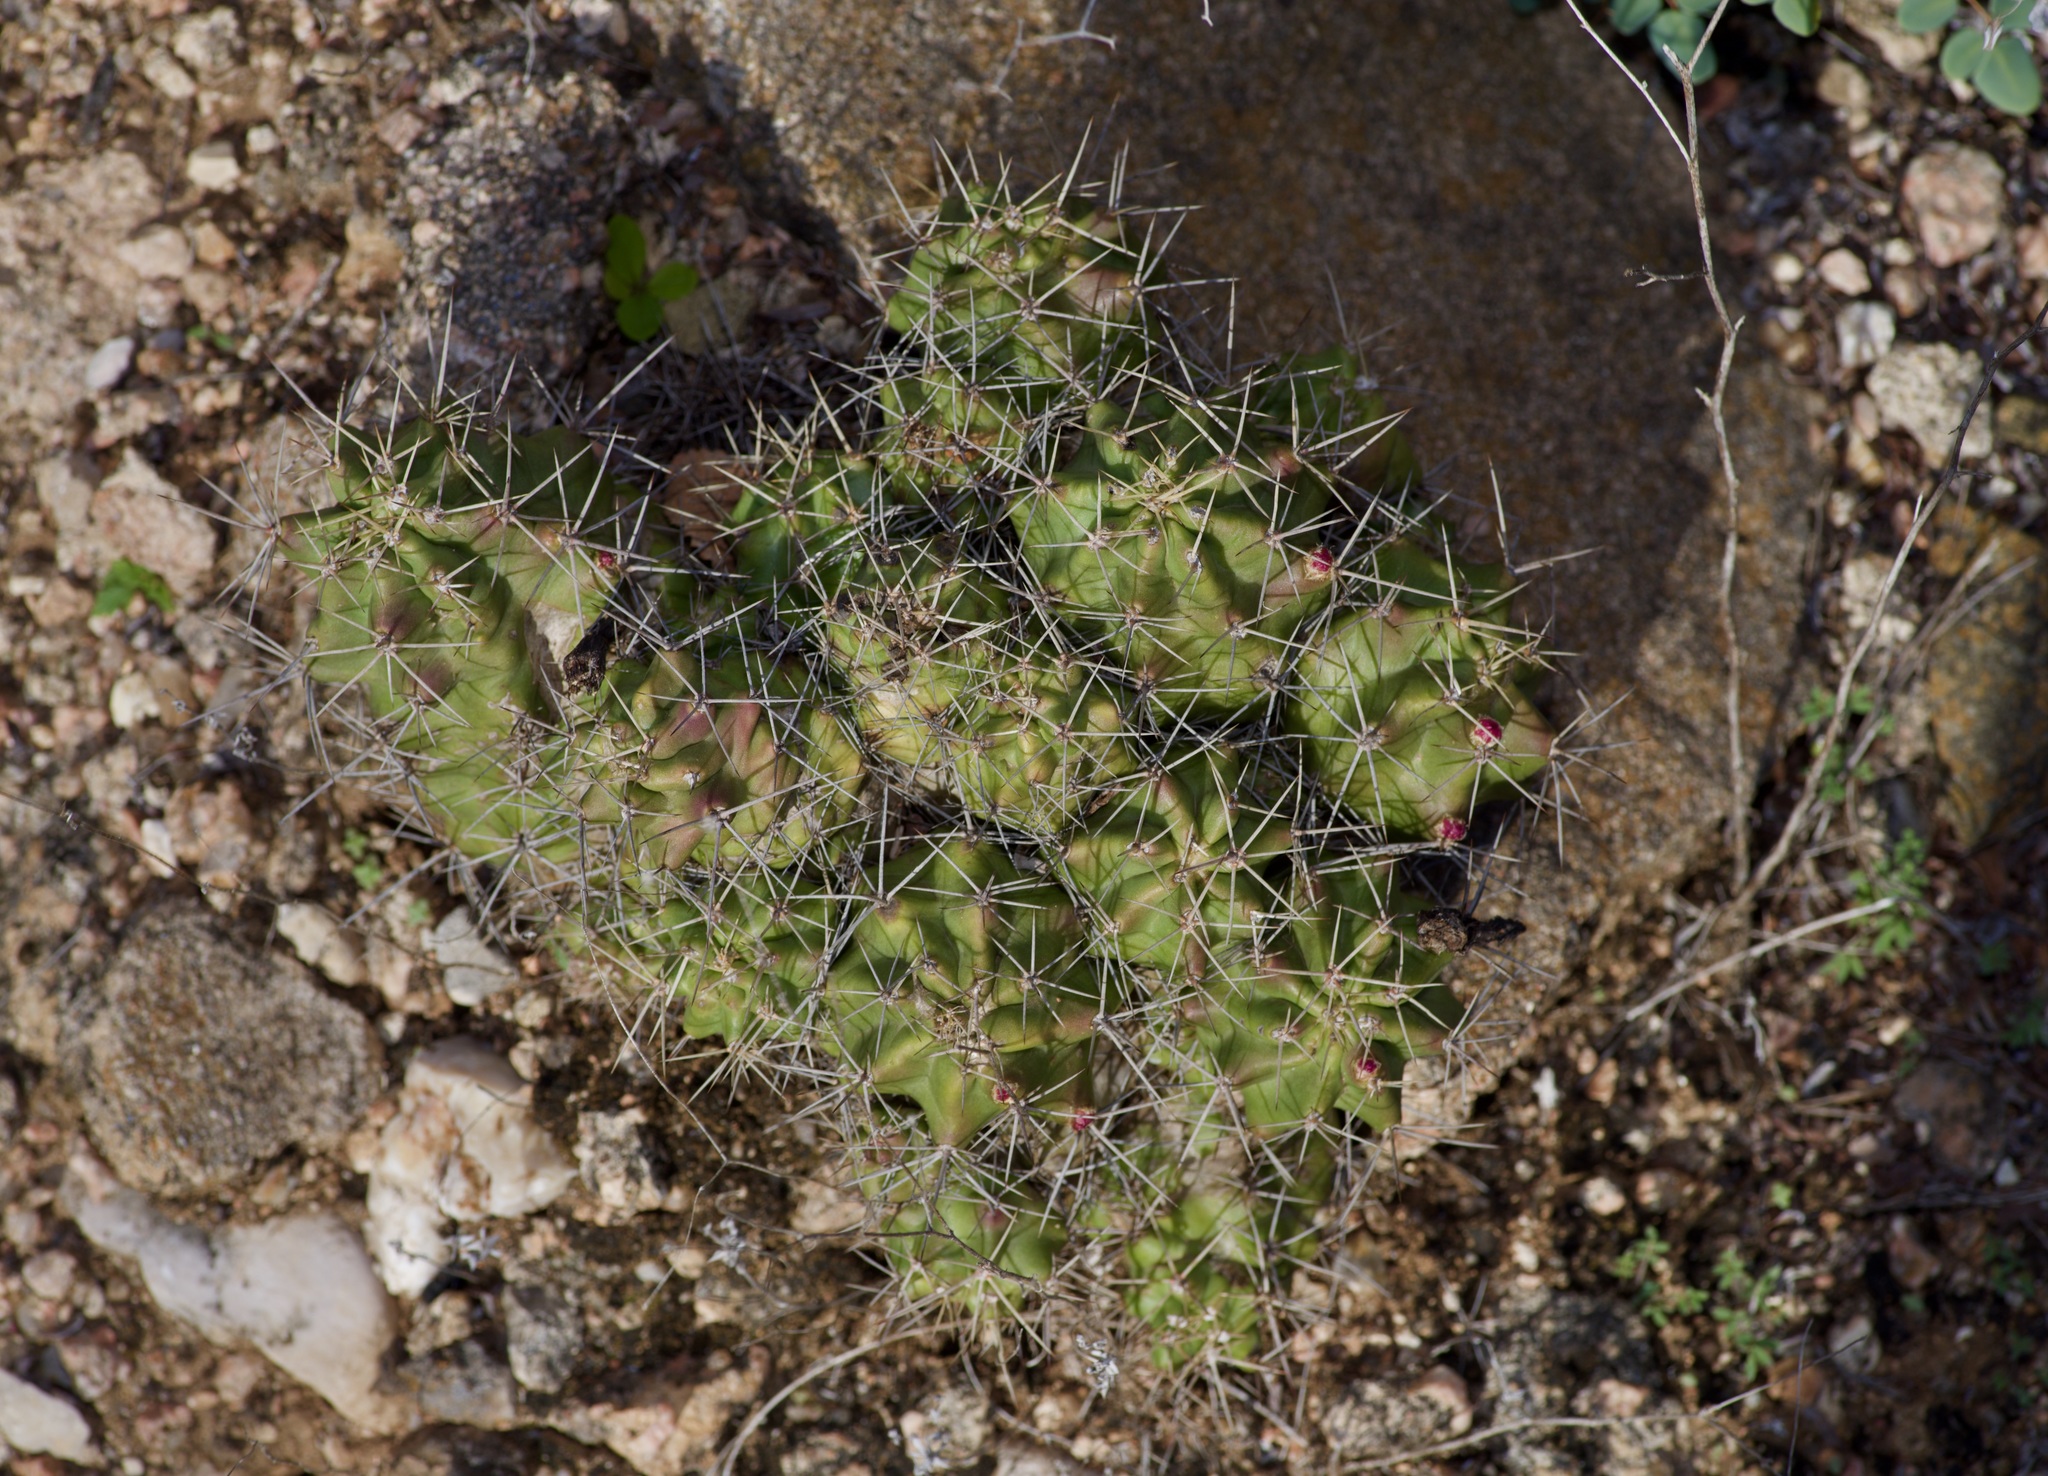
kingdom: Plantae
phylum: Tracheophyta
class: Magnoliopsida
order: Caryophyllales
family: Cactaceae
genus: Echinocereus
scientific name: Echinocereus coccineus
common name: Scarlet hedgehog cactus
